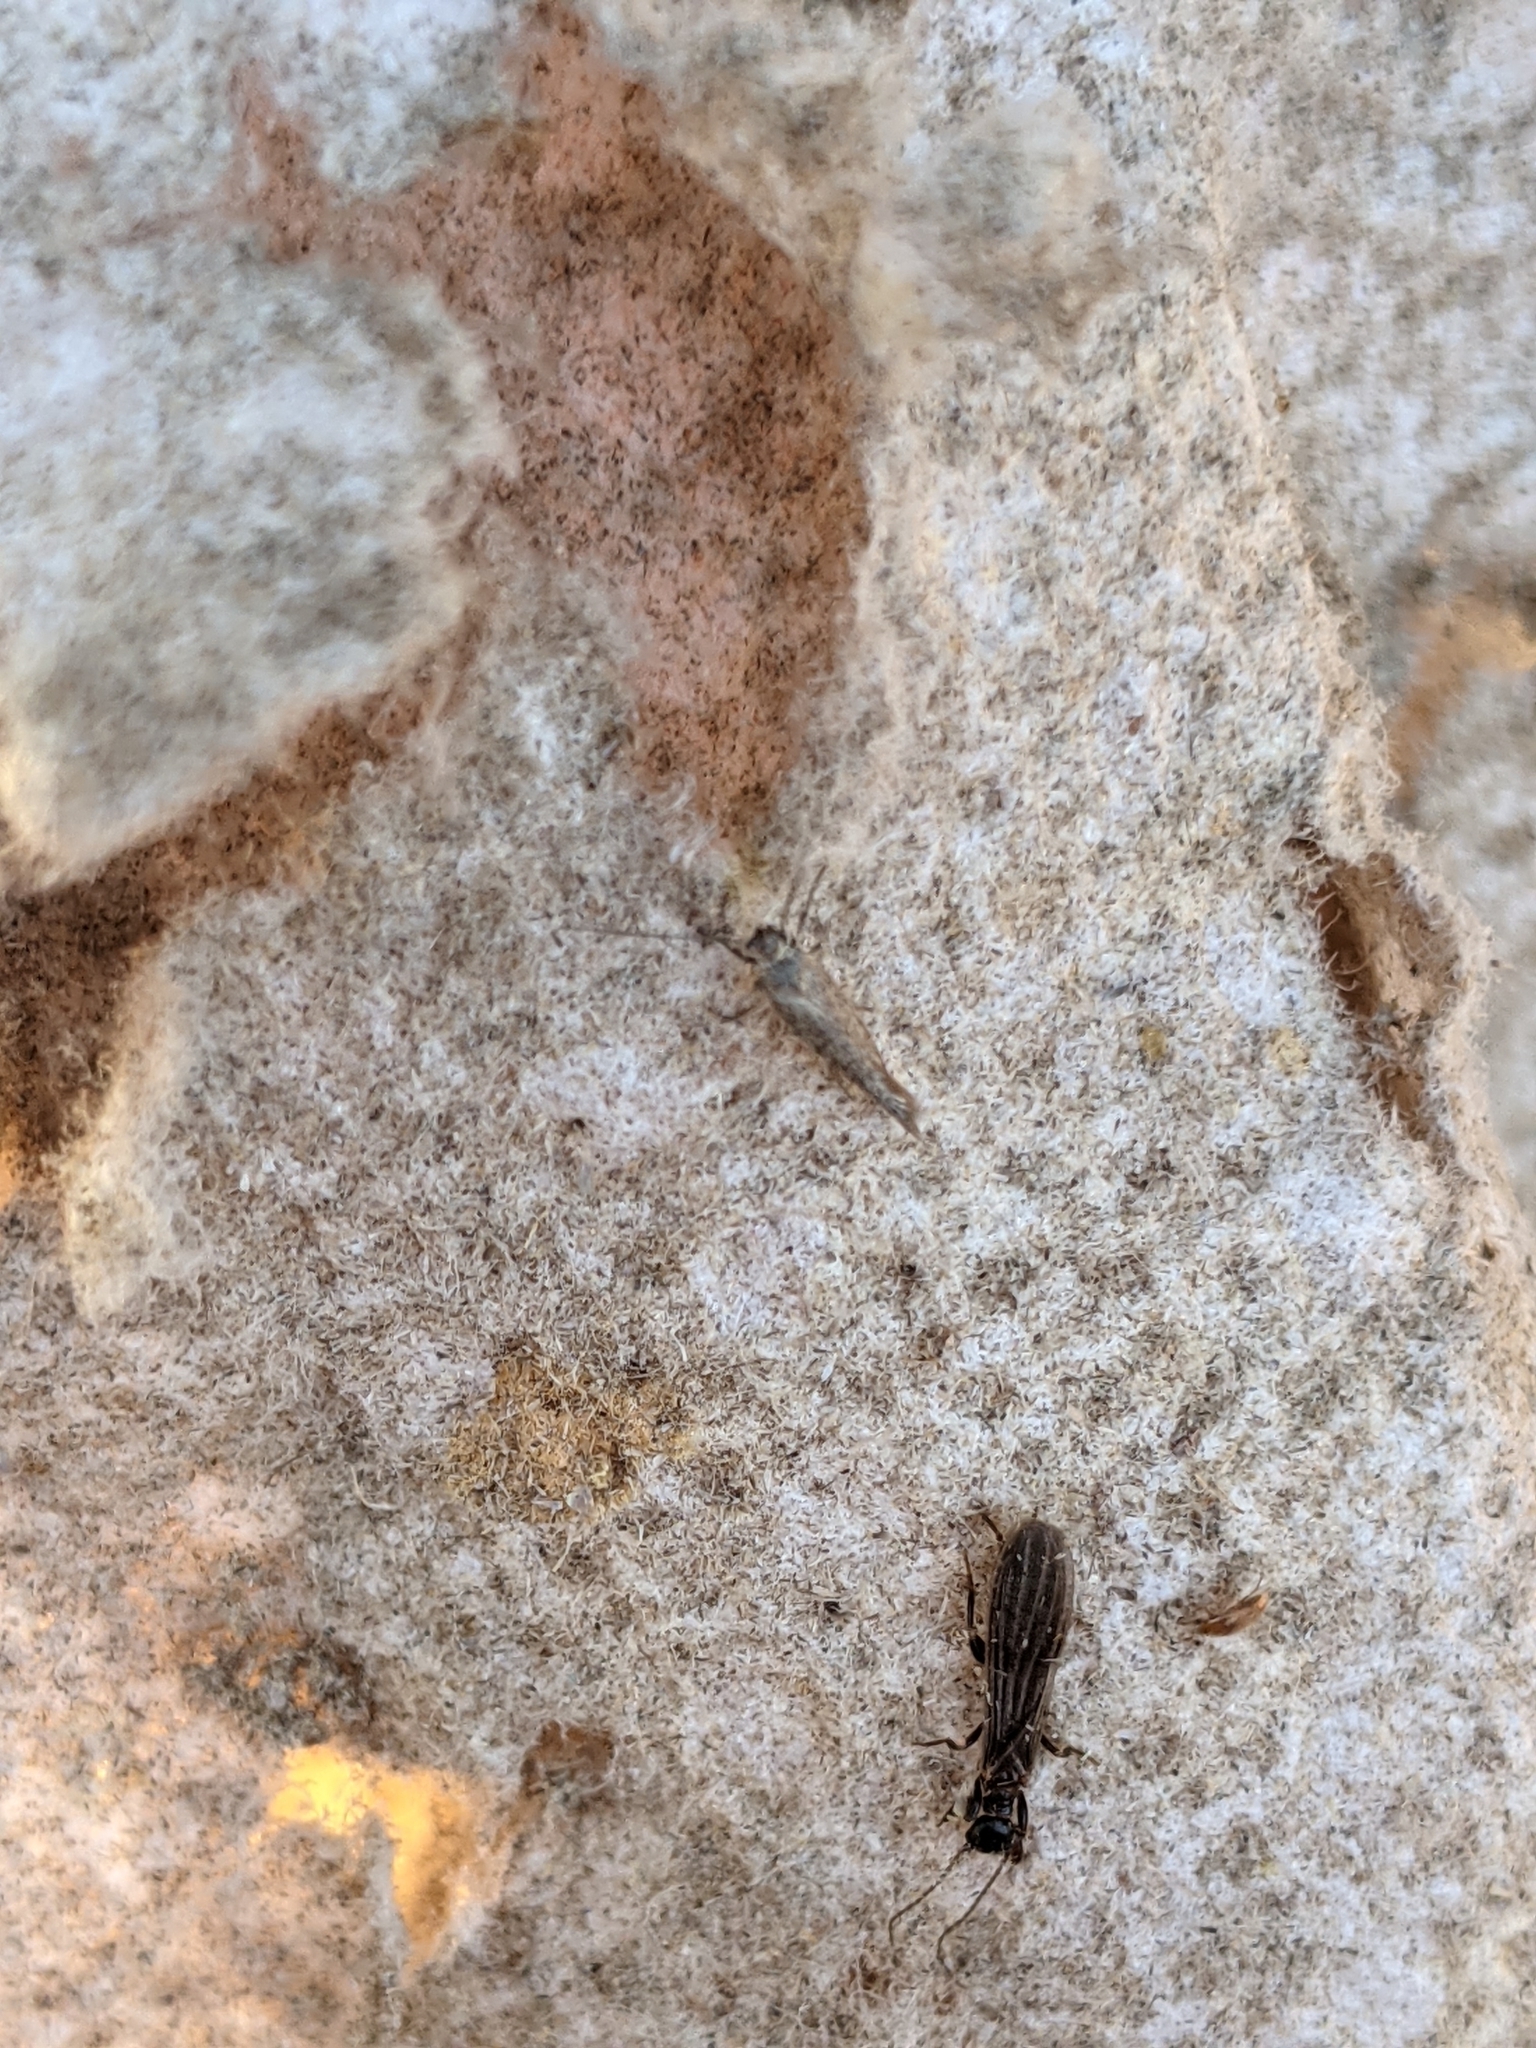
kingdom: Animalia
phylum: Arthropoda
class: Insecta
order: Embioptera
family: Oligotomidae
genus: Oligotoma
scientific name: Oligotoma nigra
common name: Black webspinner
